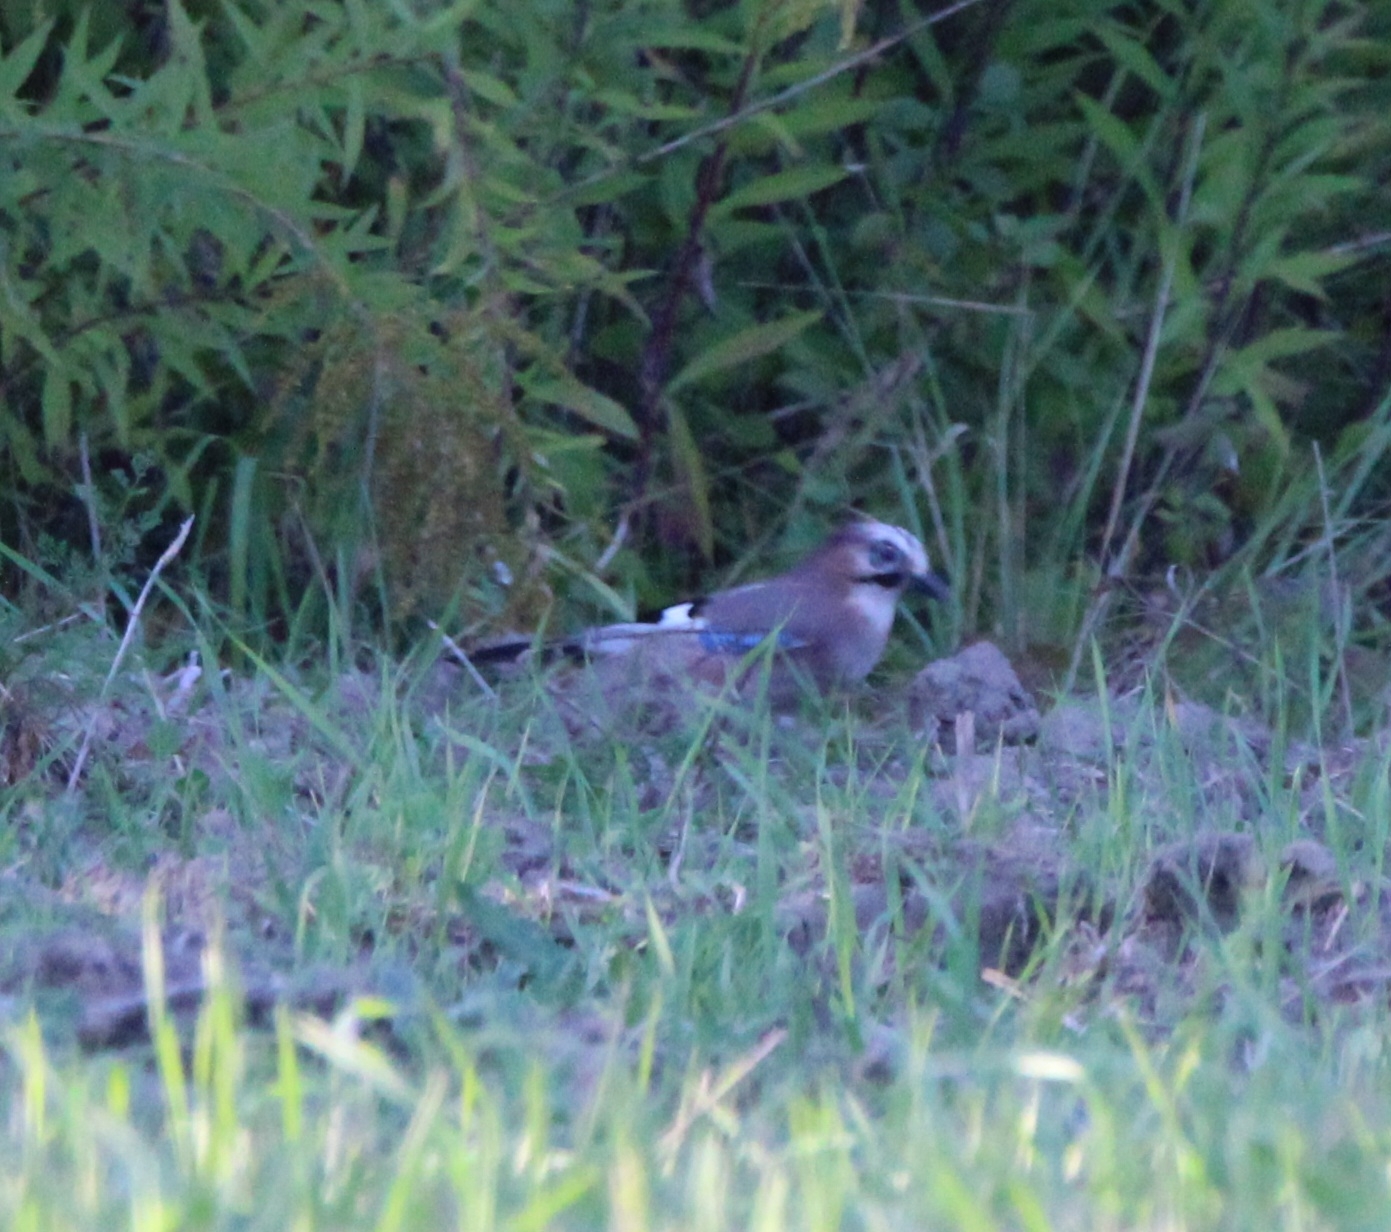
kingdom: Animalia
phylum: Chordata
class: Aves
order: Passeriformes
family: Corvidae
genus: Garrulus
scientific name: Garrulus glandarius
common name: Eurasian jay
